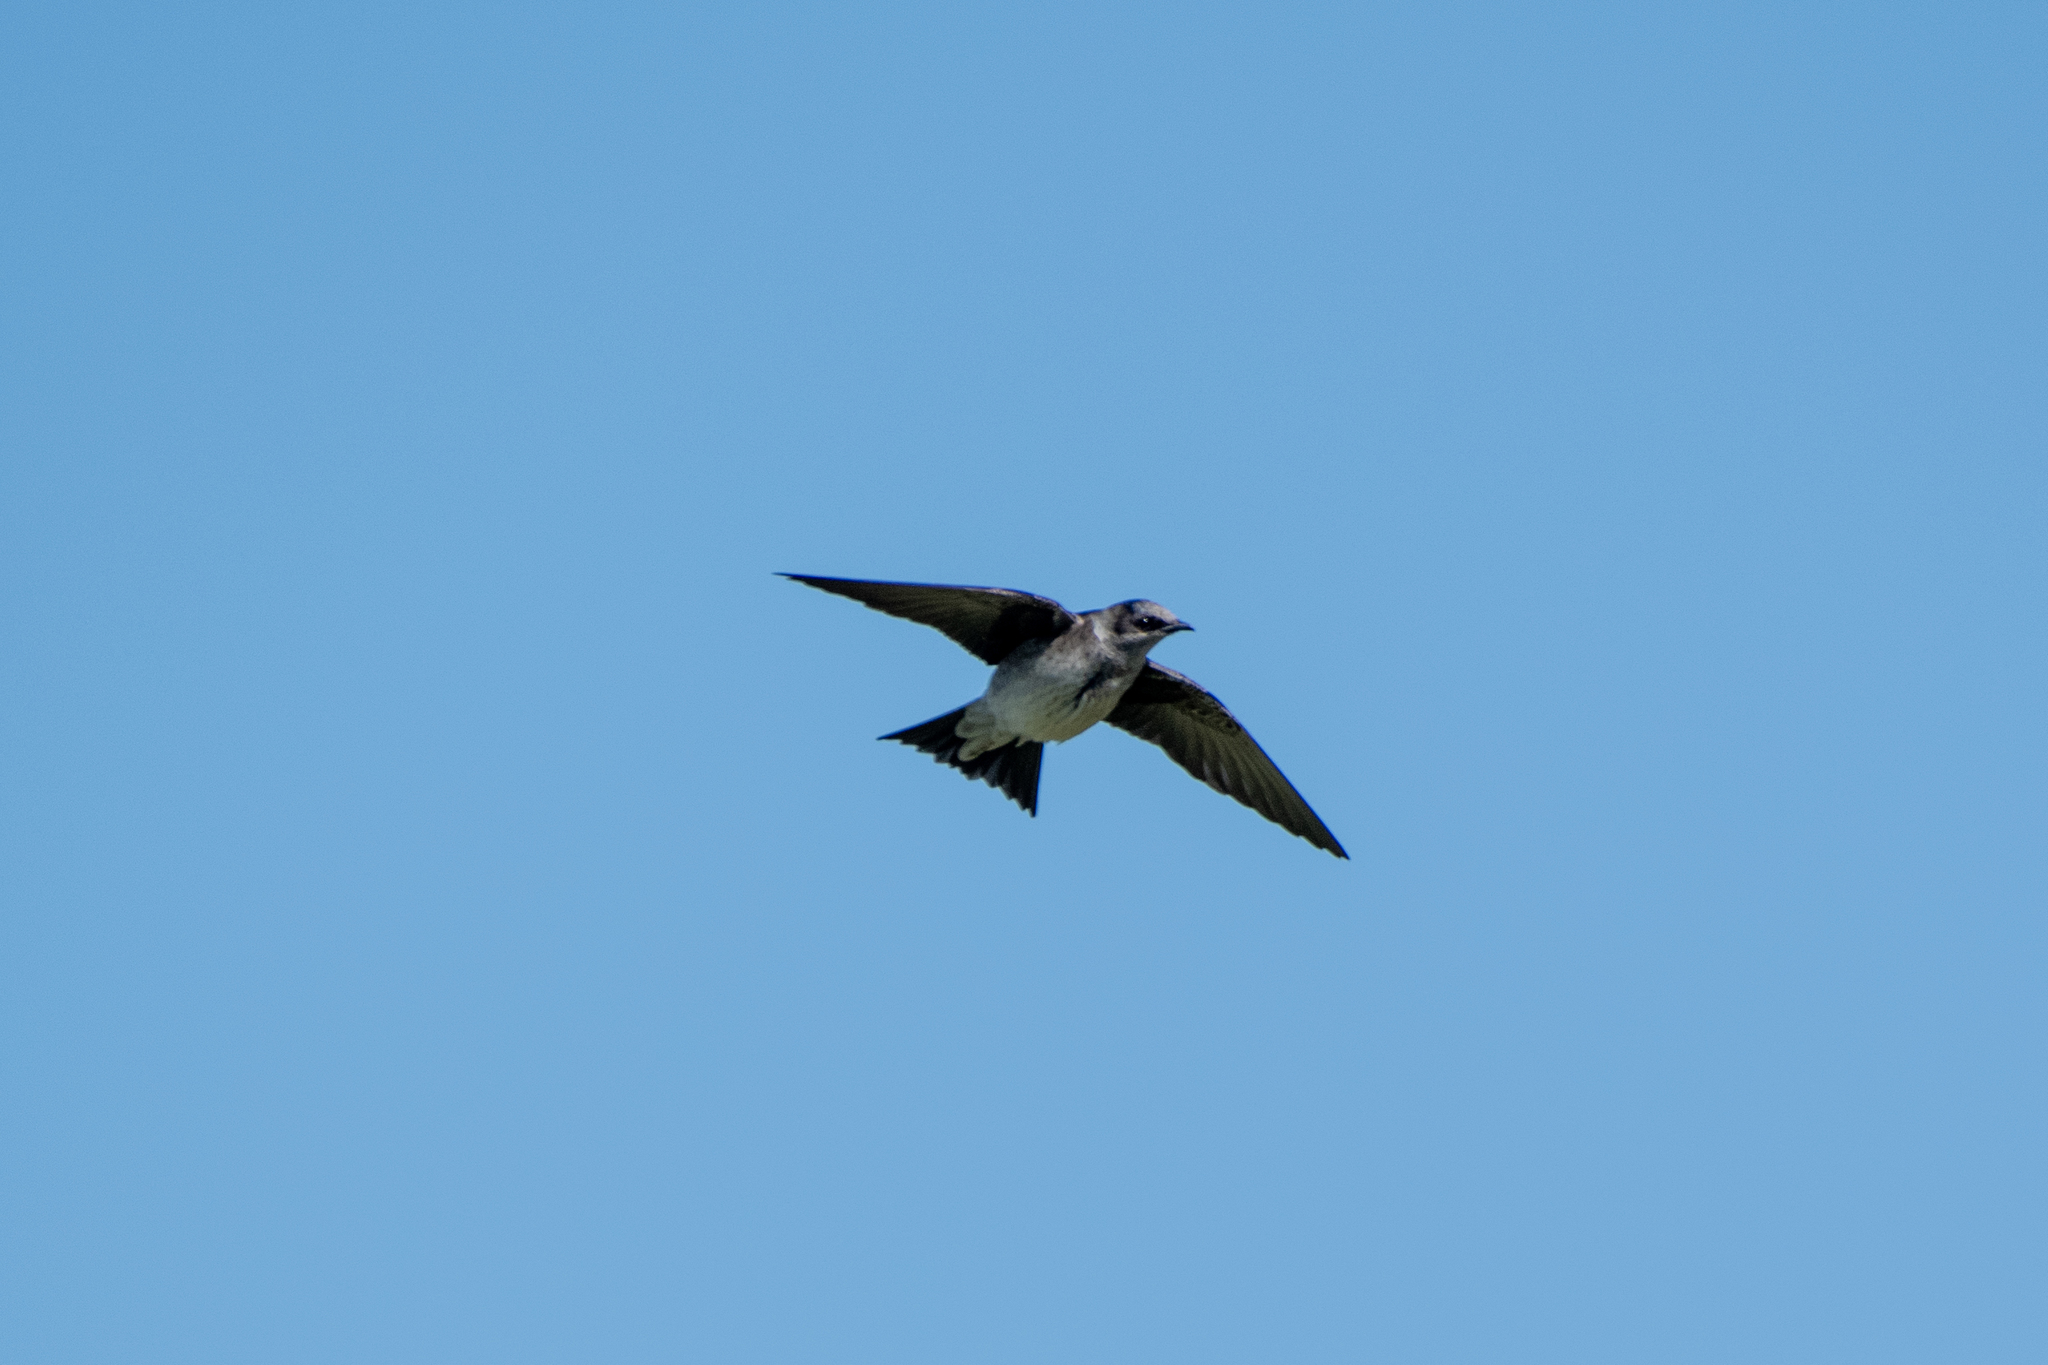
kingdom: Animalia
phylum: Chordata
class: Aves
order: Passeriformes
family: Hirundinidae
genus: Progne
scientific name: Progne subis
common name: Purple martin
